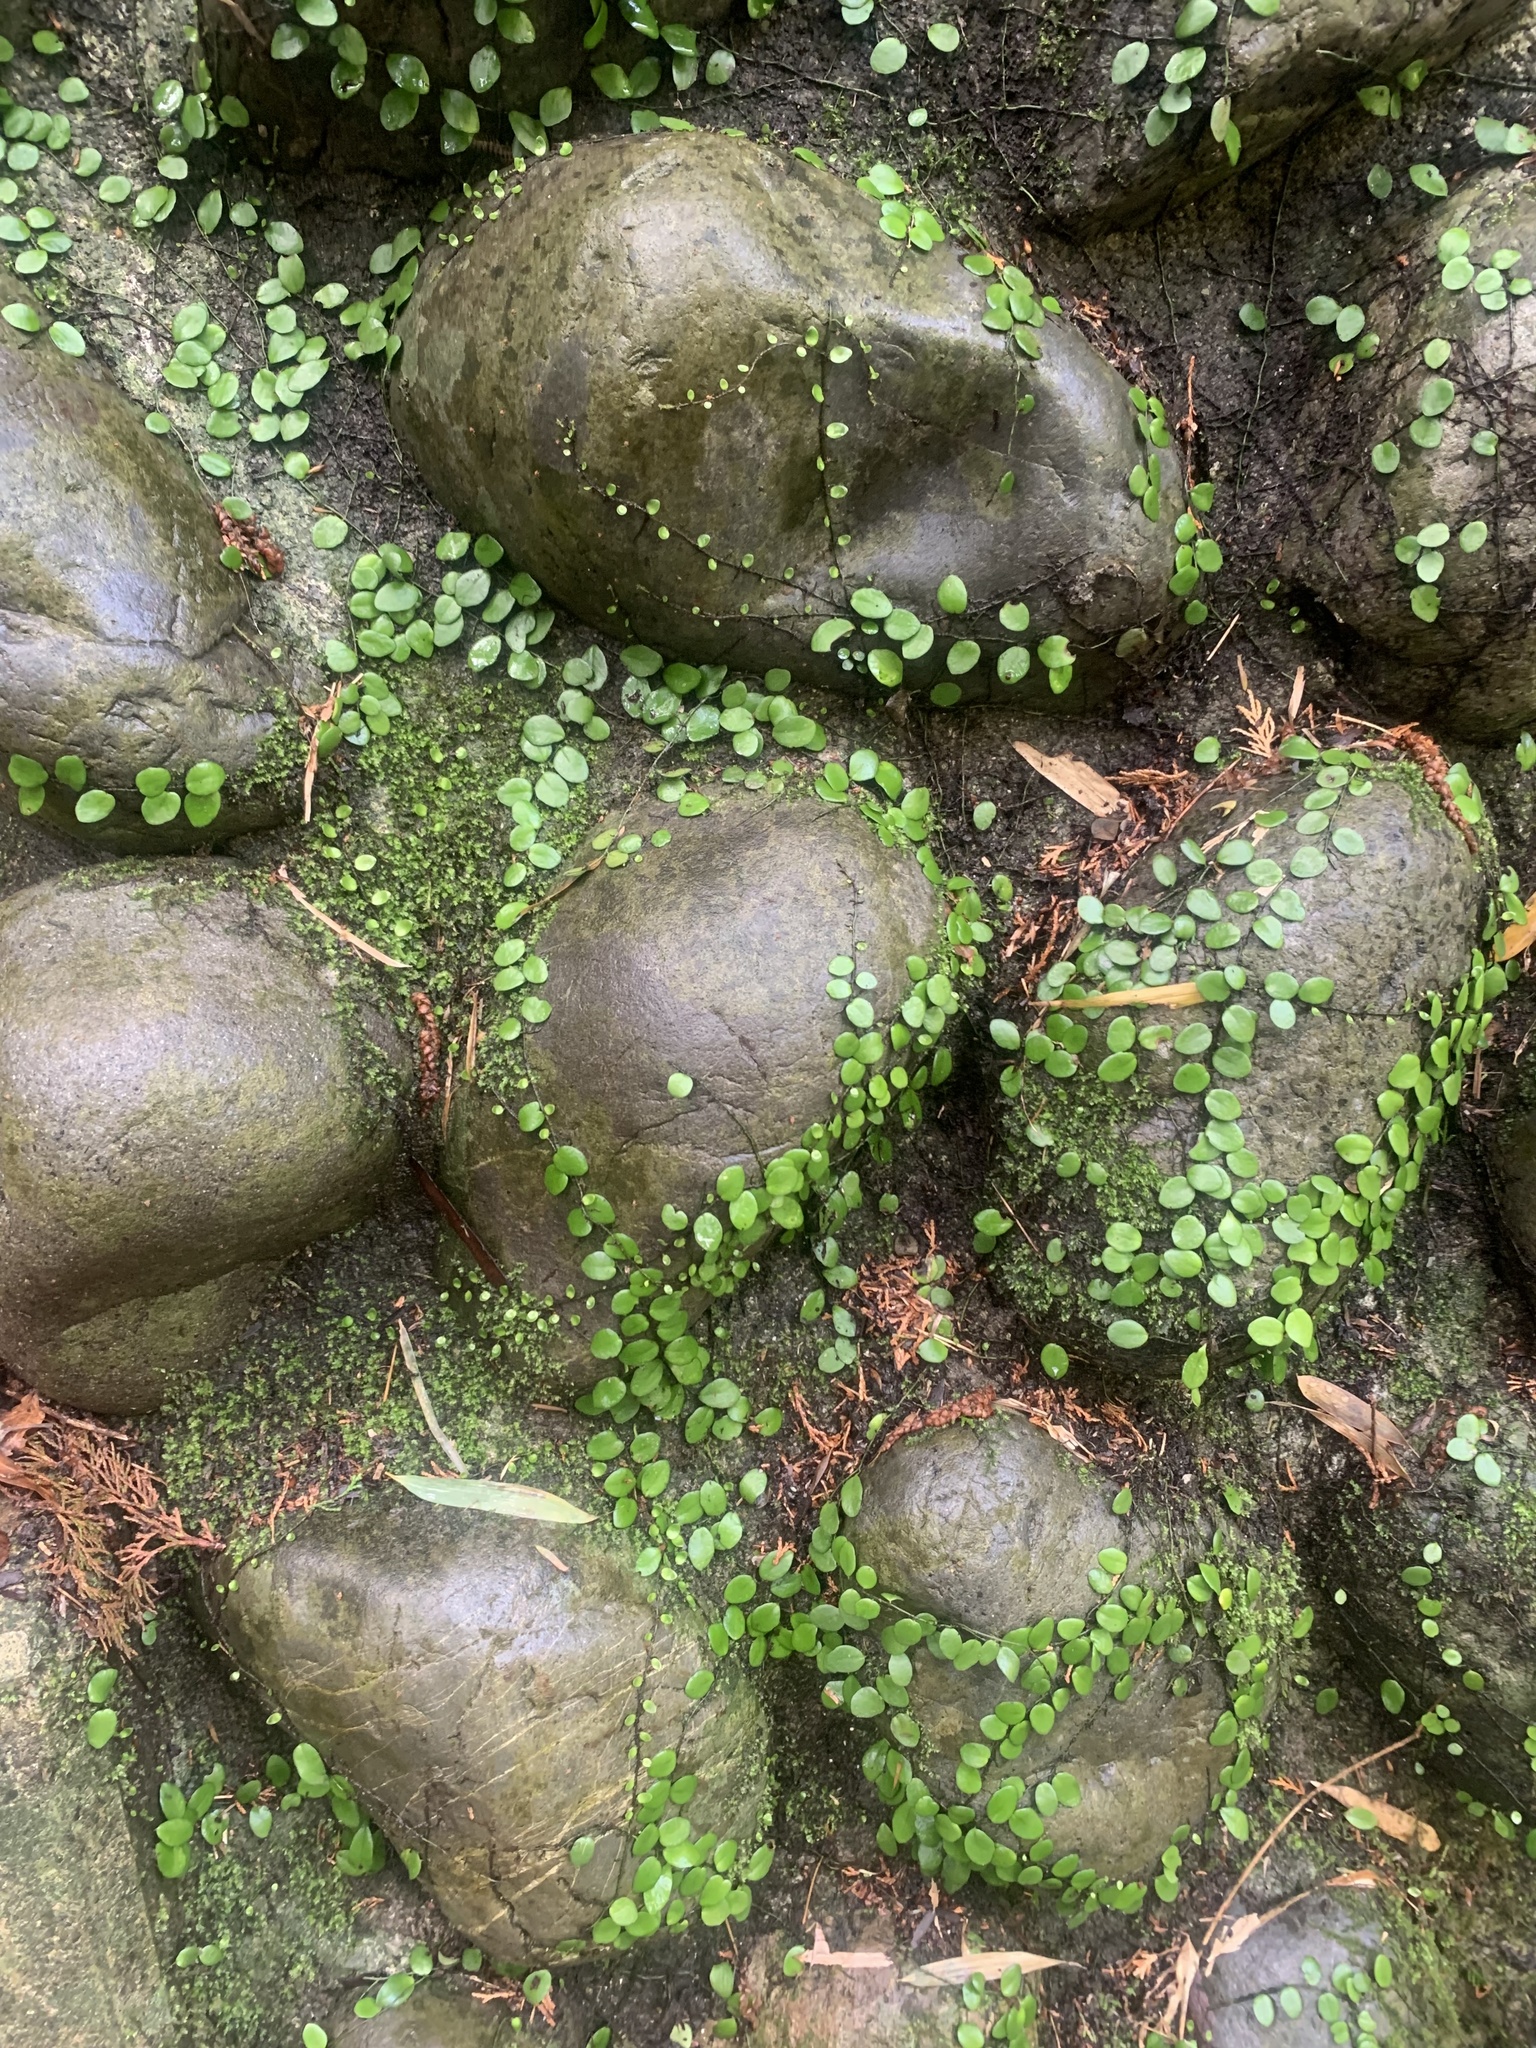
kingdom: Plantae
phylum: Tracheophyta
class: Polypodiopsida
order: Polypodiales
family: Polypodiaceae
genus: Lepisorus
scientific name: Lepisorus microphyllus
